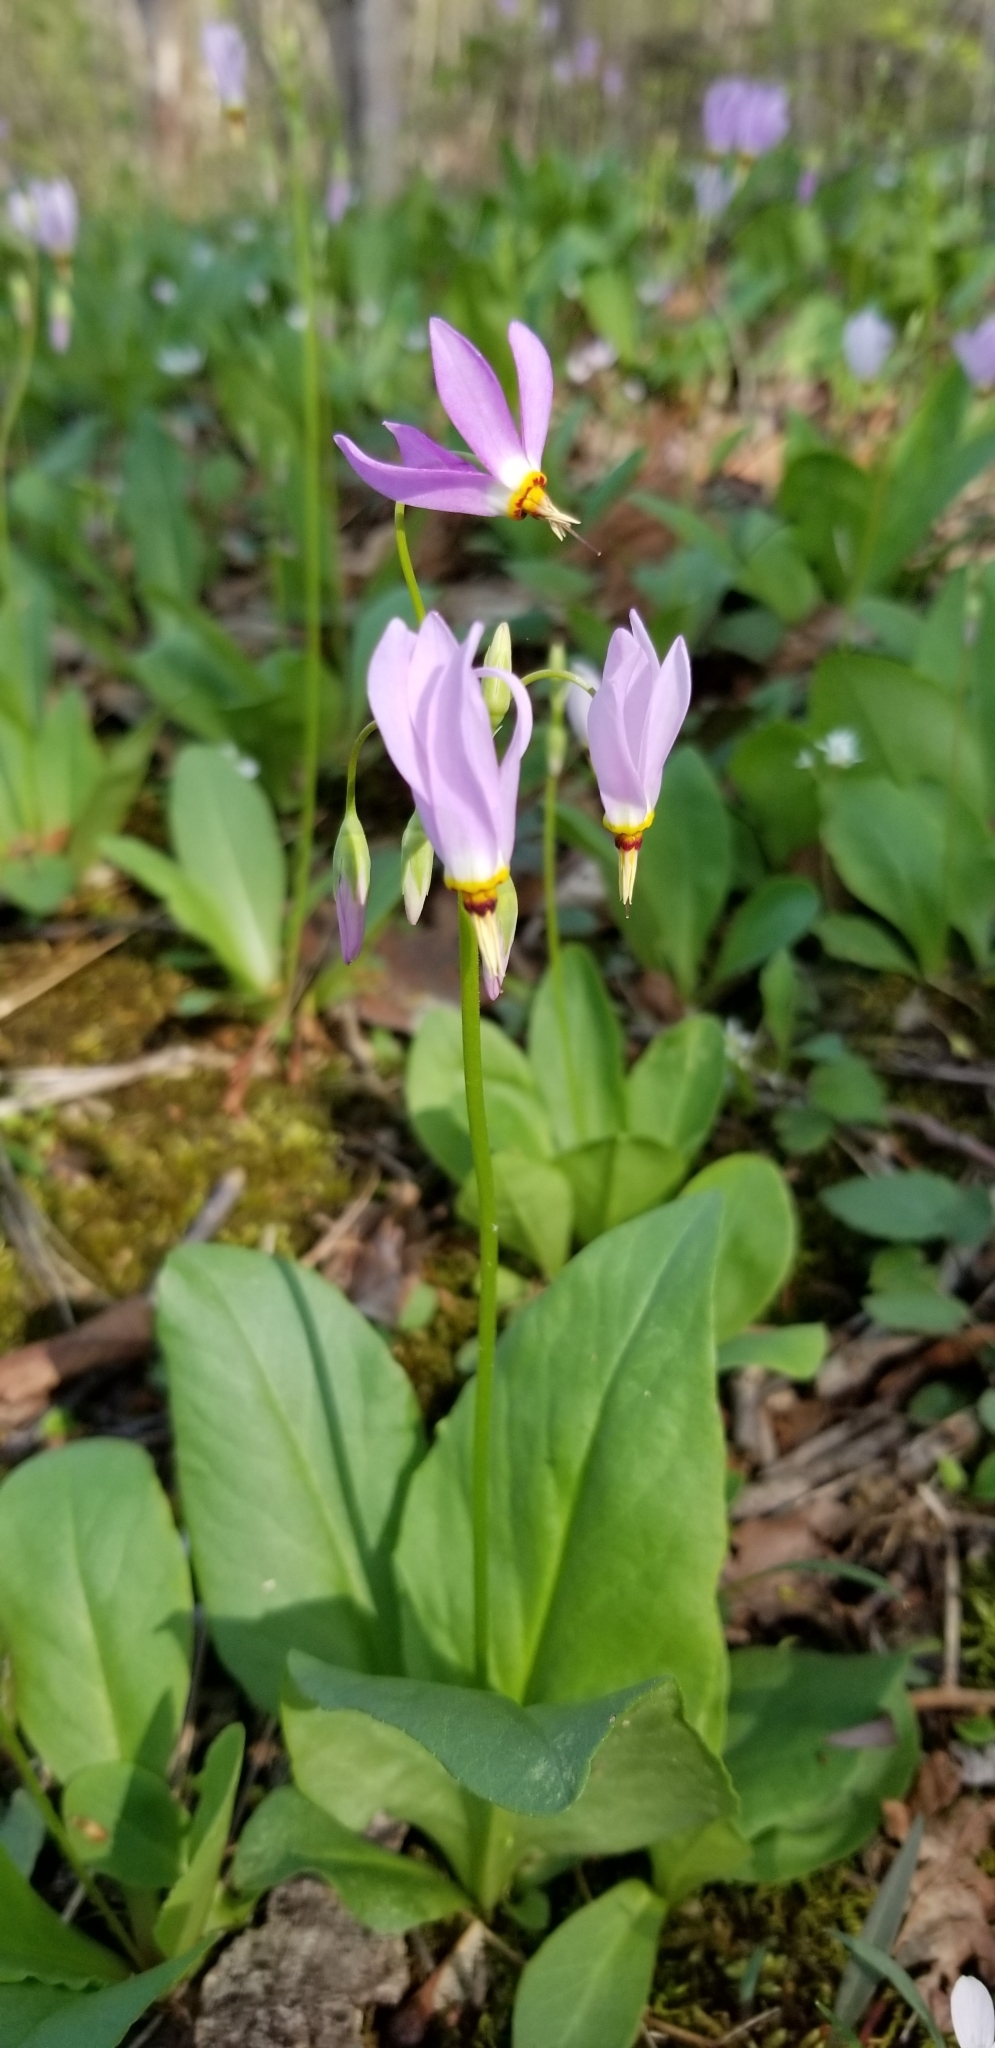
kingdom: Plantae
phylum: Tracheophyta
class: Magnoliopsida
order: Ericales
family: Primulaceae
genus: Dodecatheon
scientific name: Dodecatheon meadia
